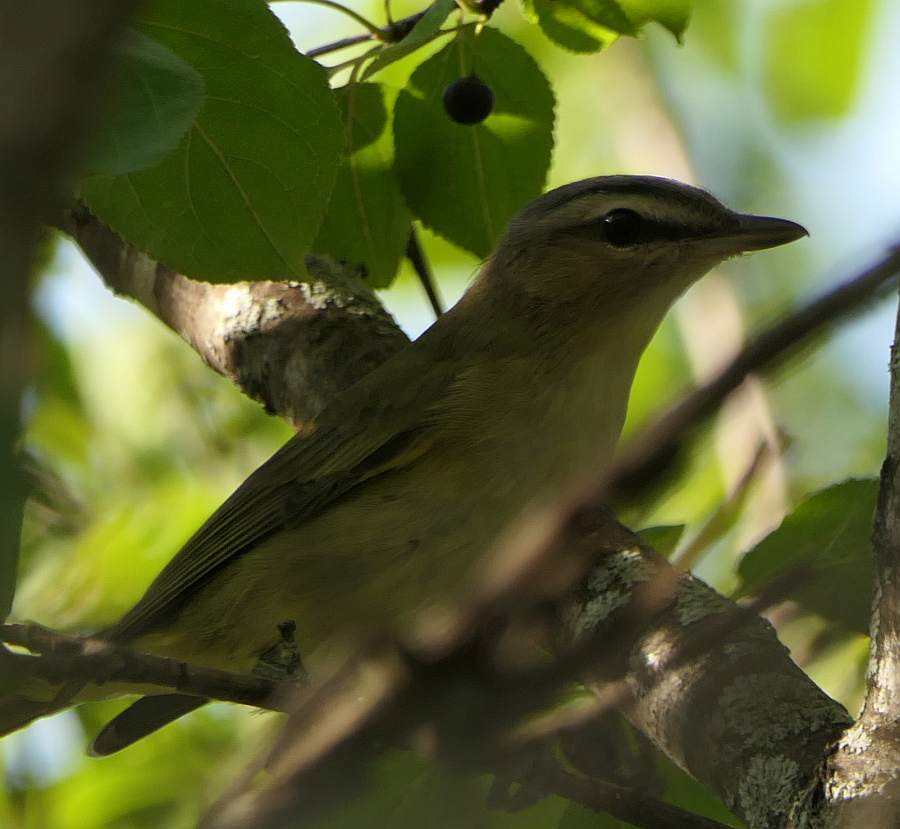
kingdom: Animalia
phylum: Chordata
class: Aves
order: Passeriformes
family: Vireonidae
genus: Vireo
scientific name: Vireo olivaceus
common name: Red-eyed vireo
